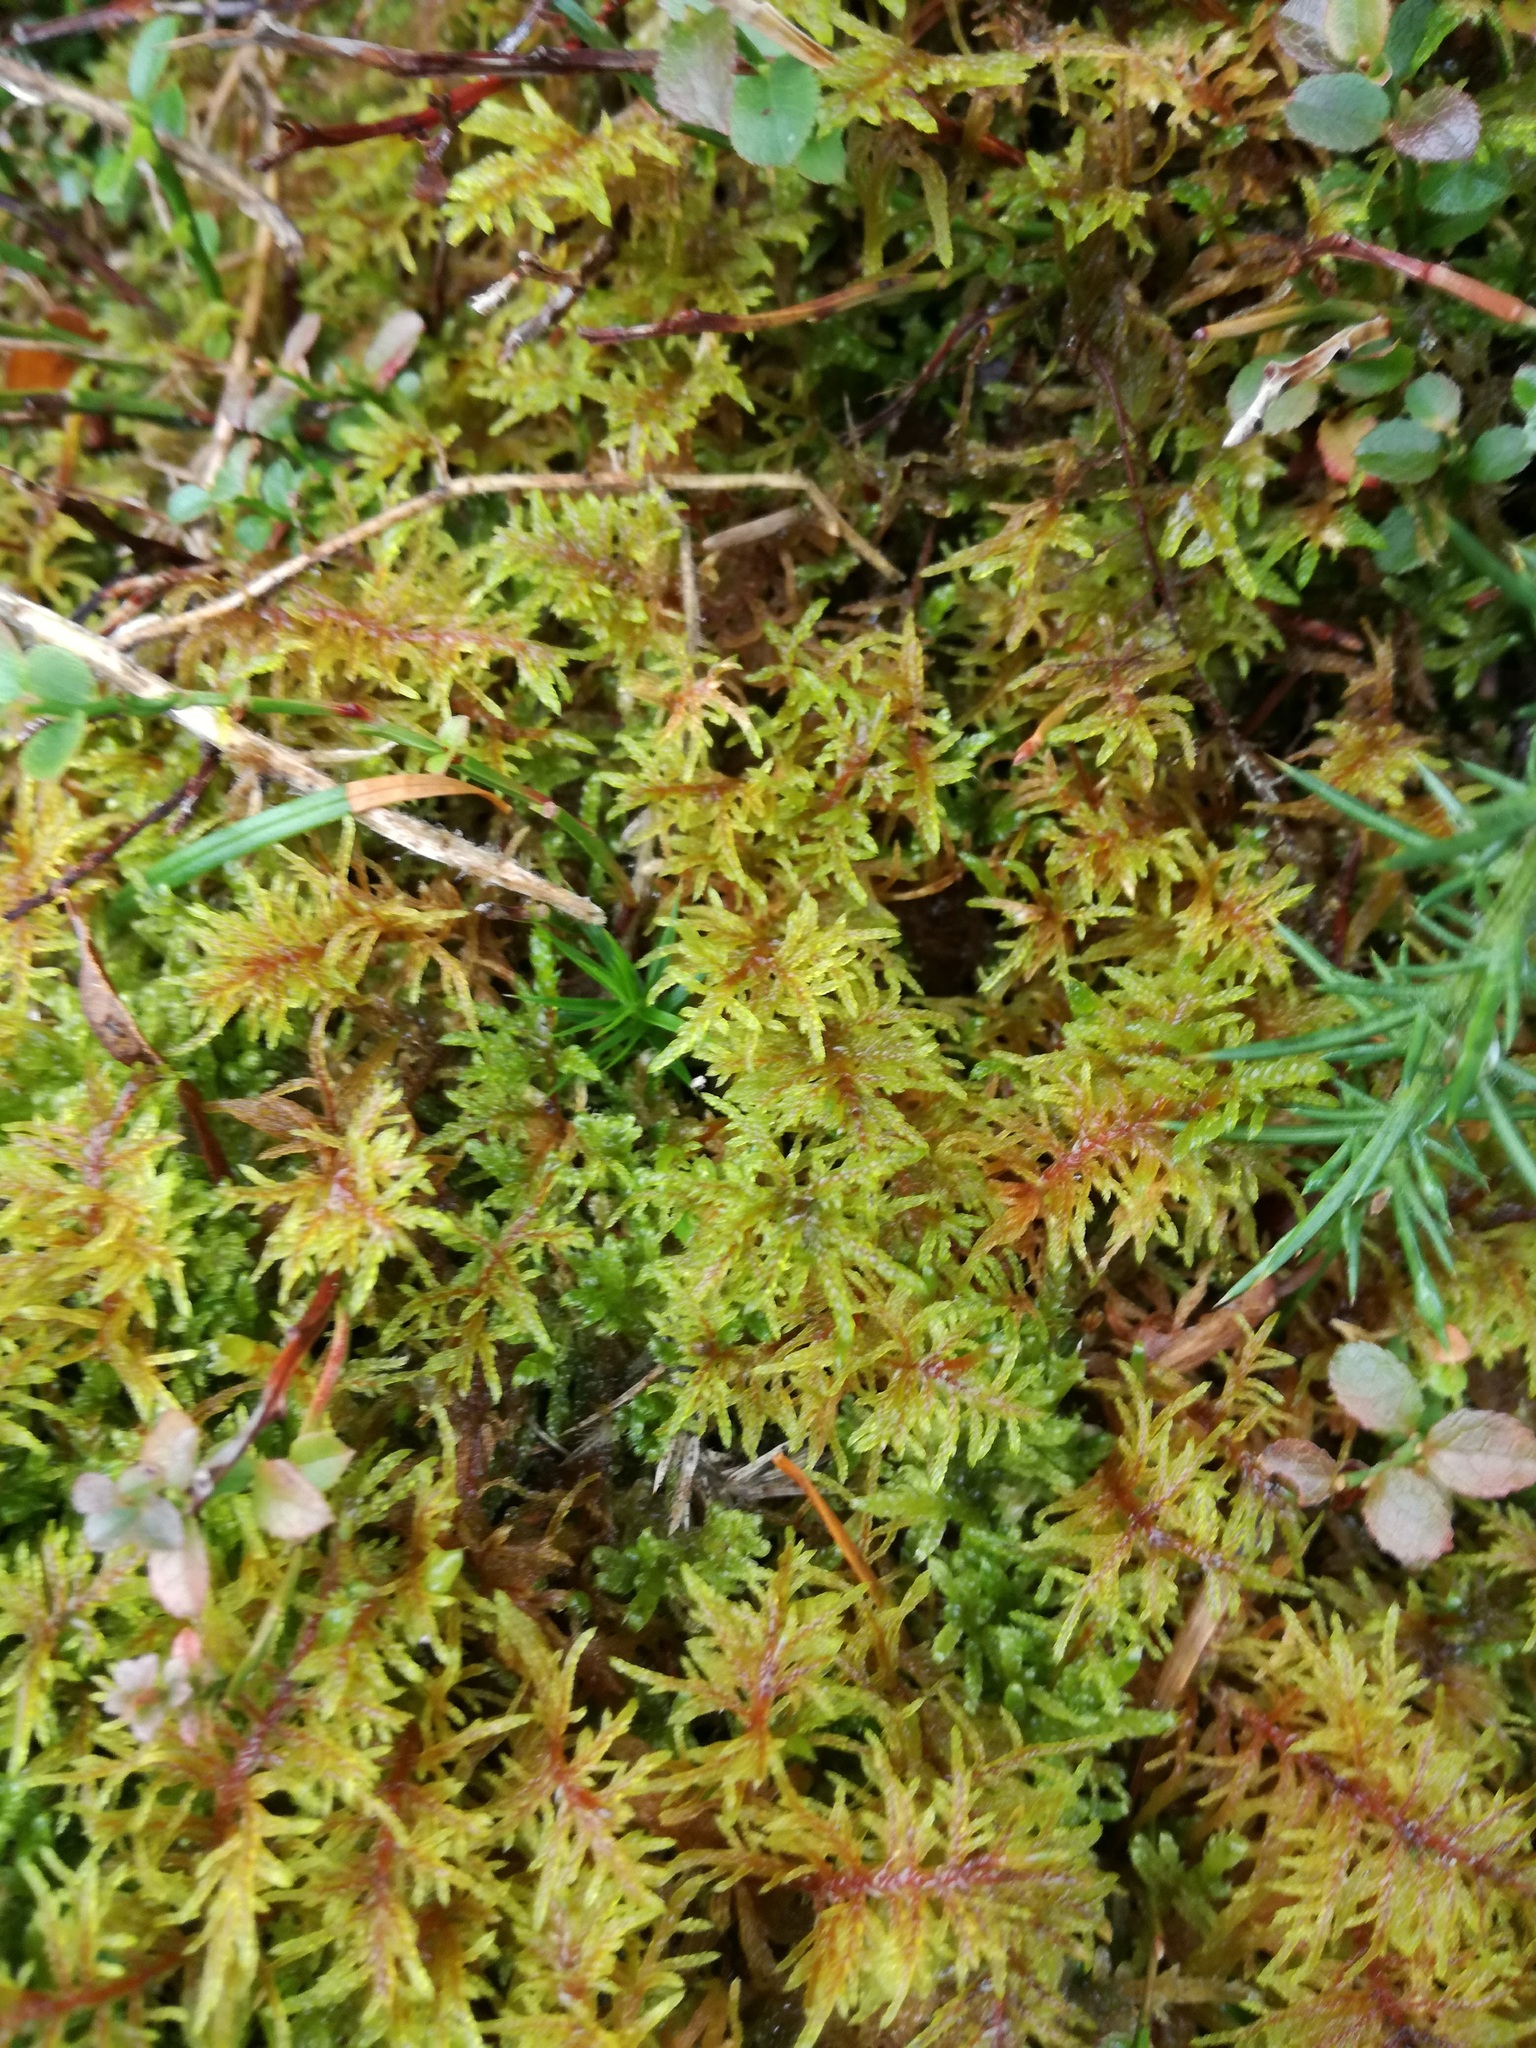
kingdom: Plantae
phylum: Bryophyta
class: Bryopsida
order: Hypnales
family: Hylocomiaceae
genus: Hylocomium
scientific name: Hylocomium splendens
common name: Stairstep moss
